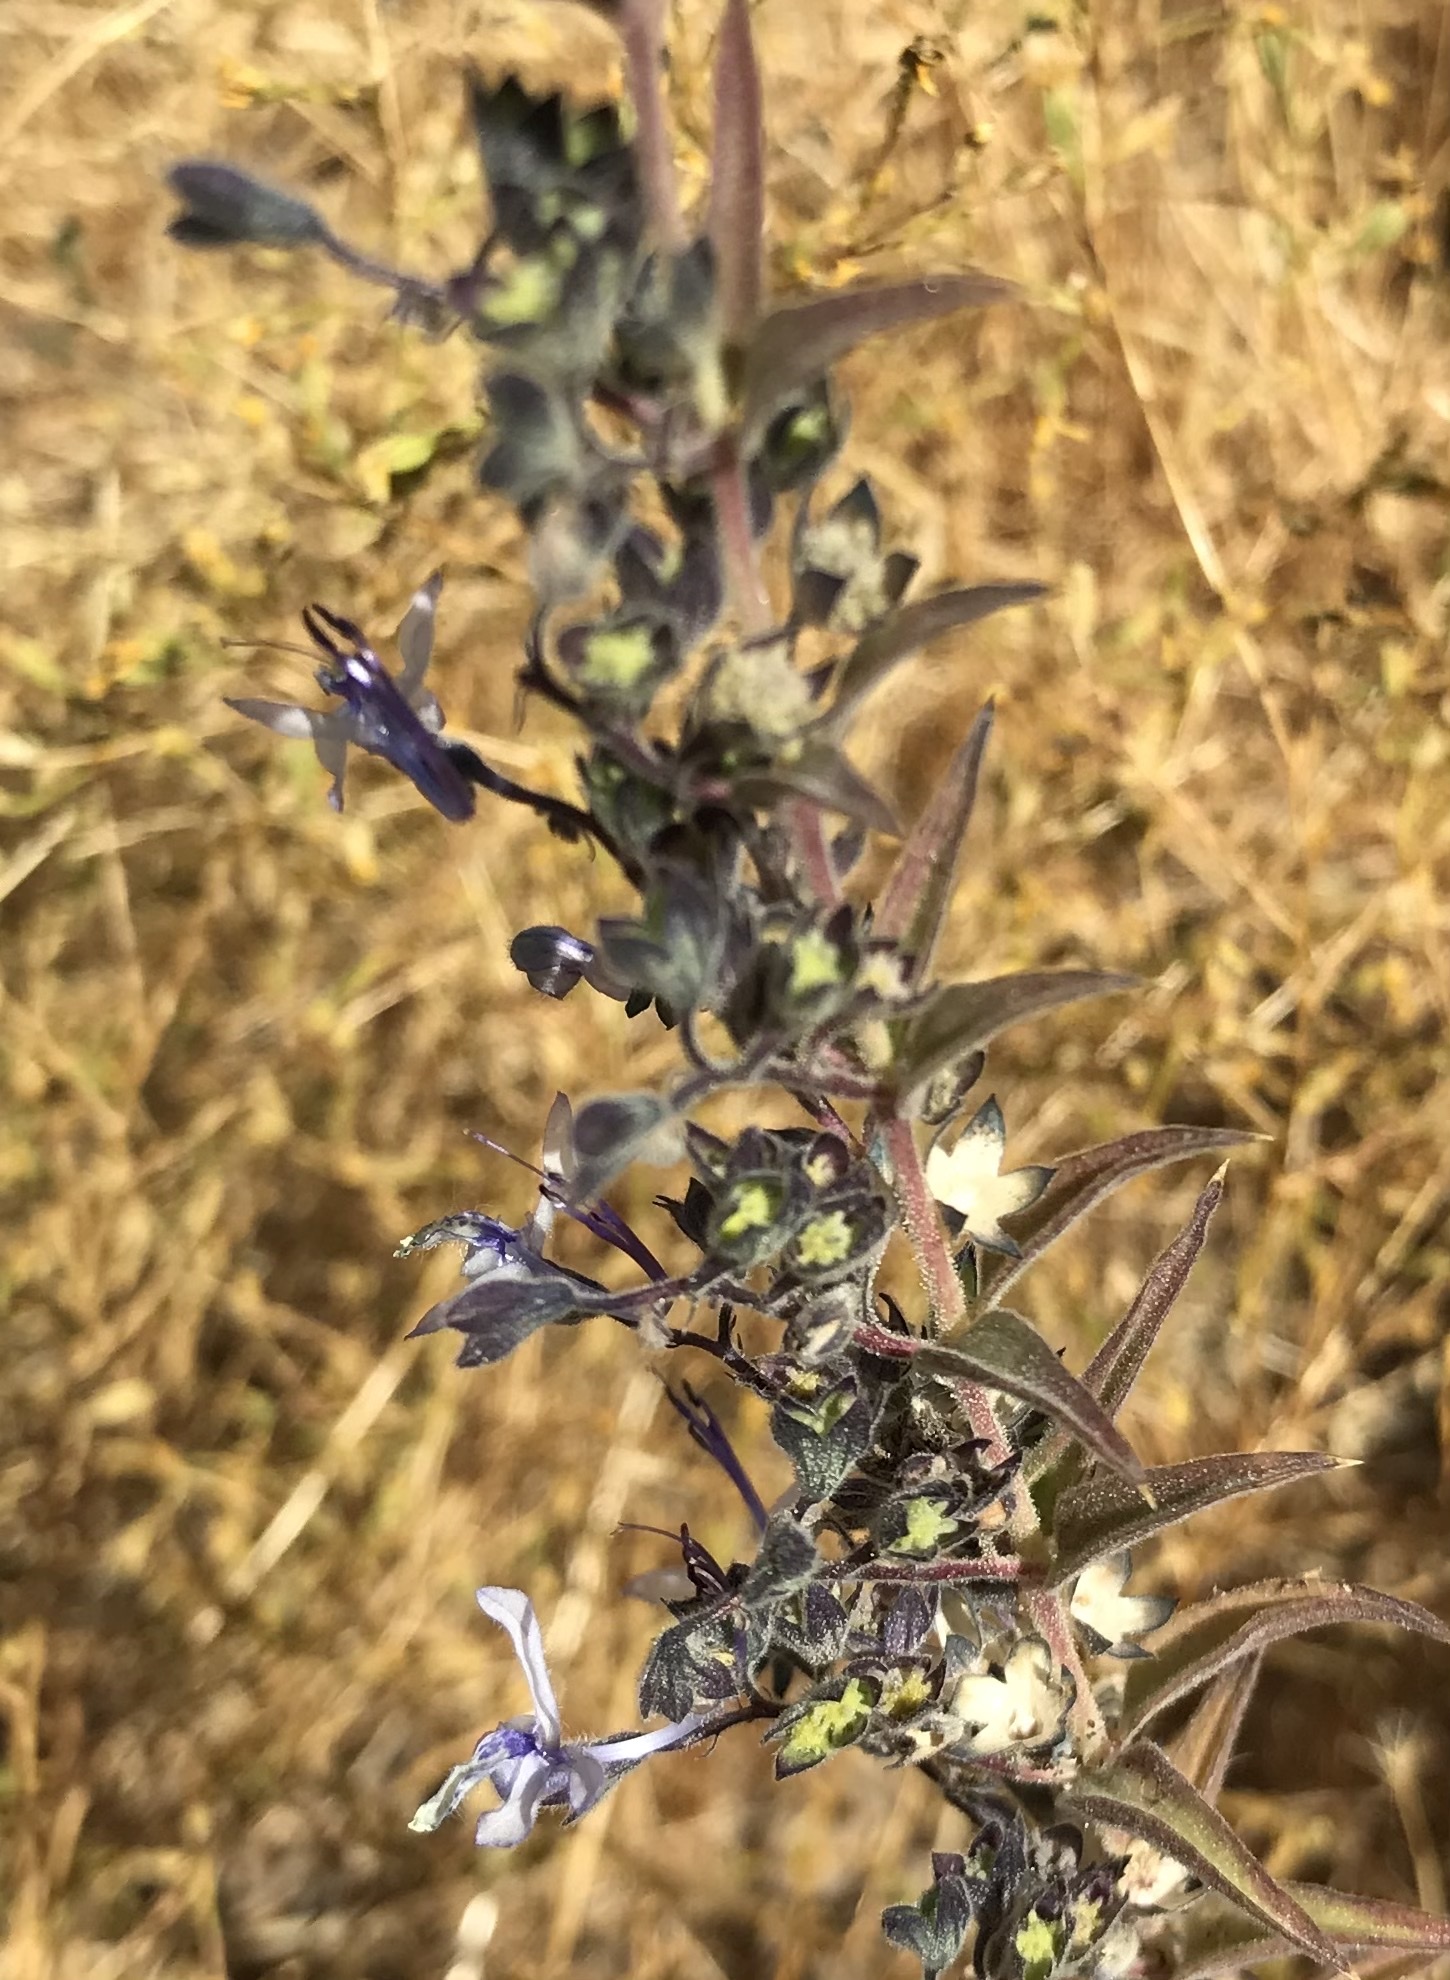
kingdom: Plantae
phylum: Tracheophyta
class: Magnoliopsida
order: Lamiales
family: Lamiaceae
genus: Trichostema
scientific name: Trichostema lanceolatum
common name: Vinegar-weed
